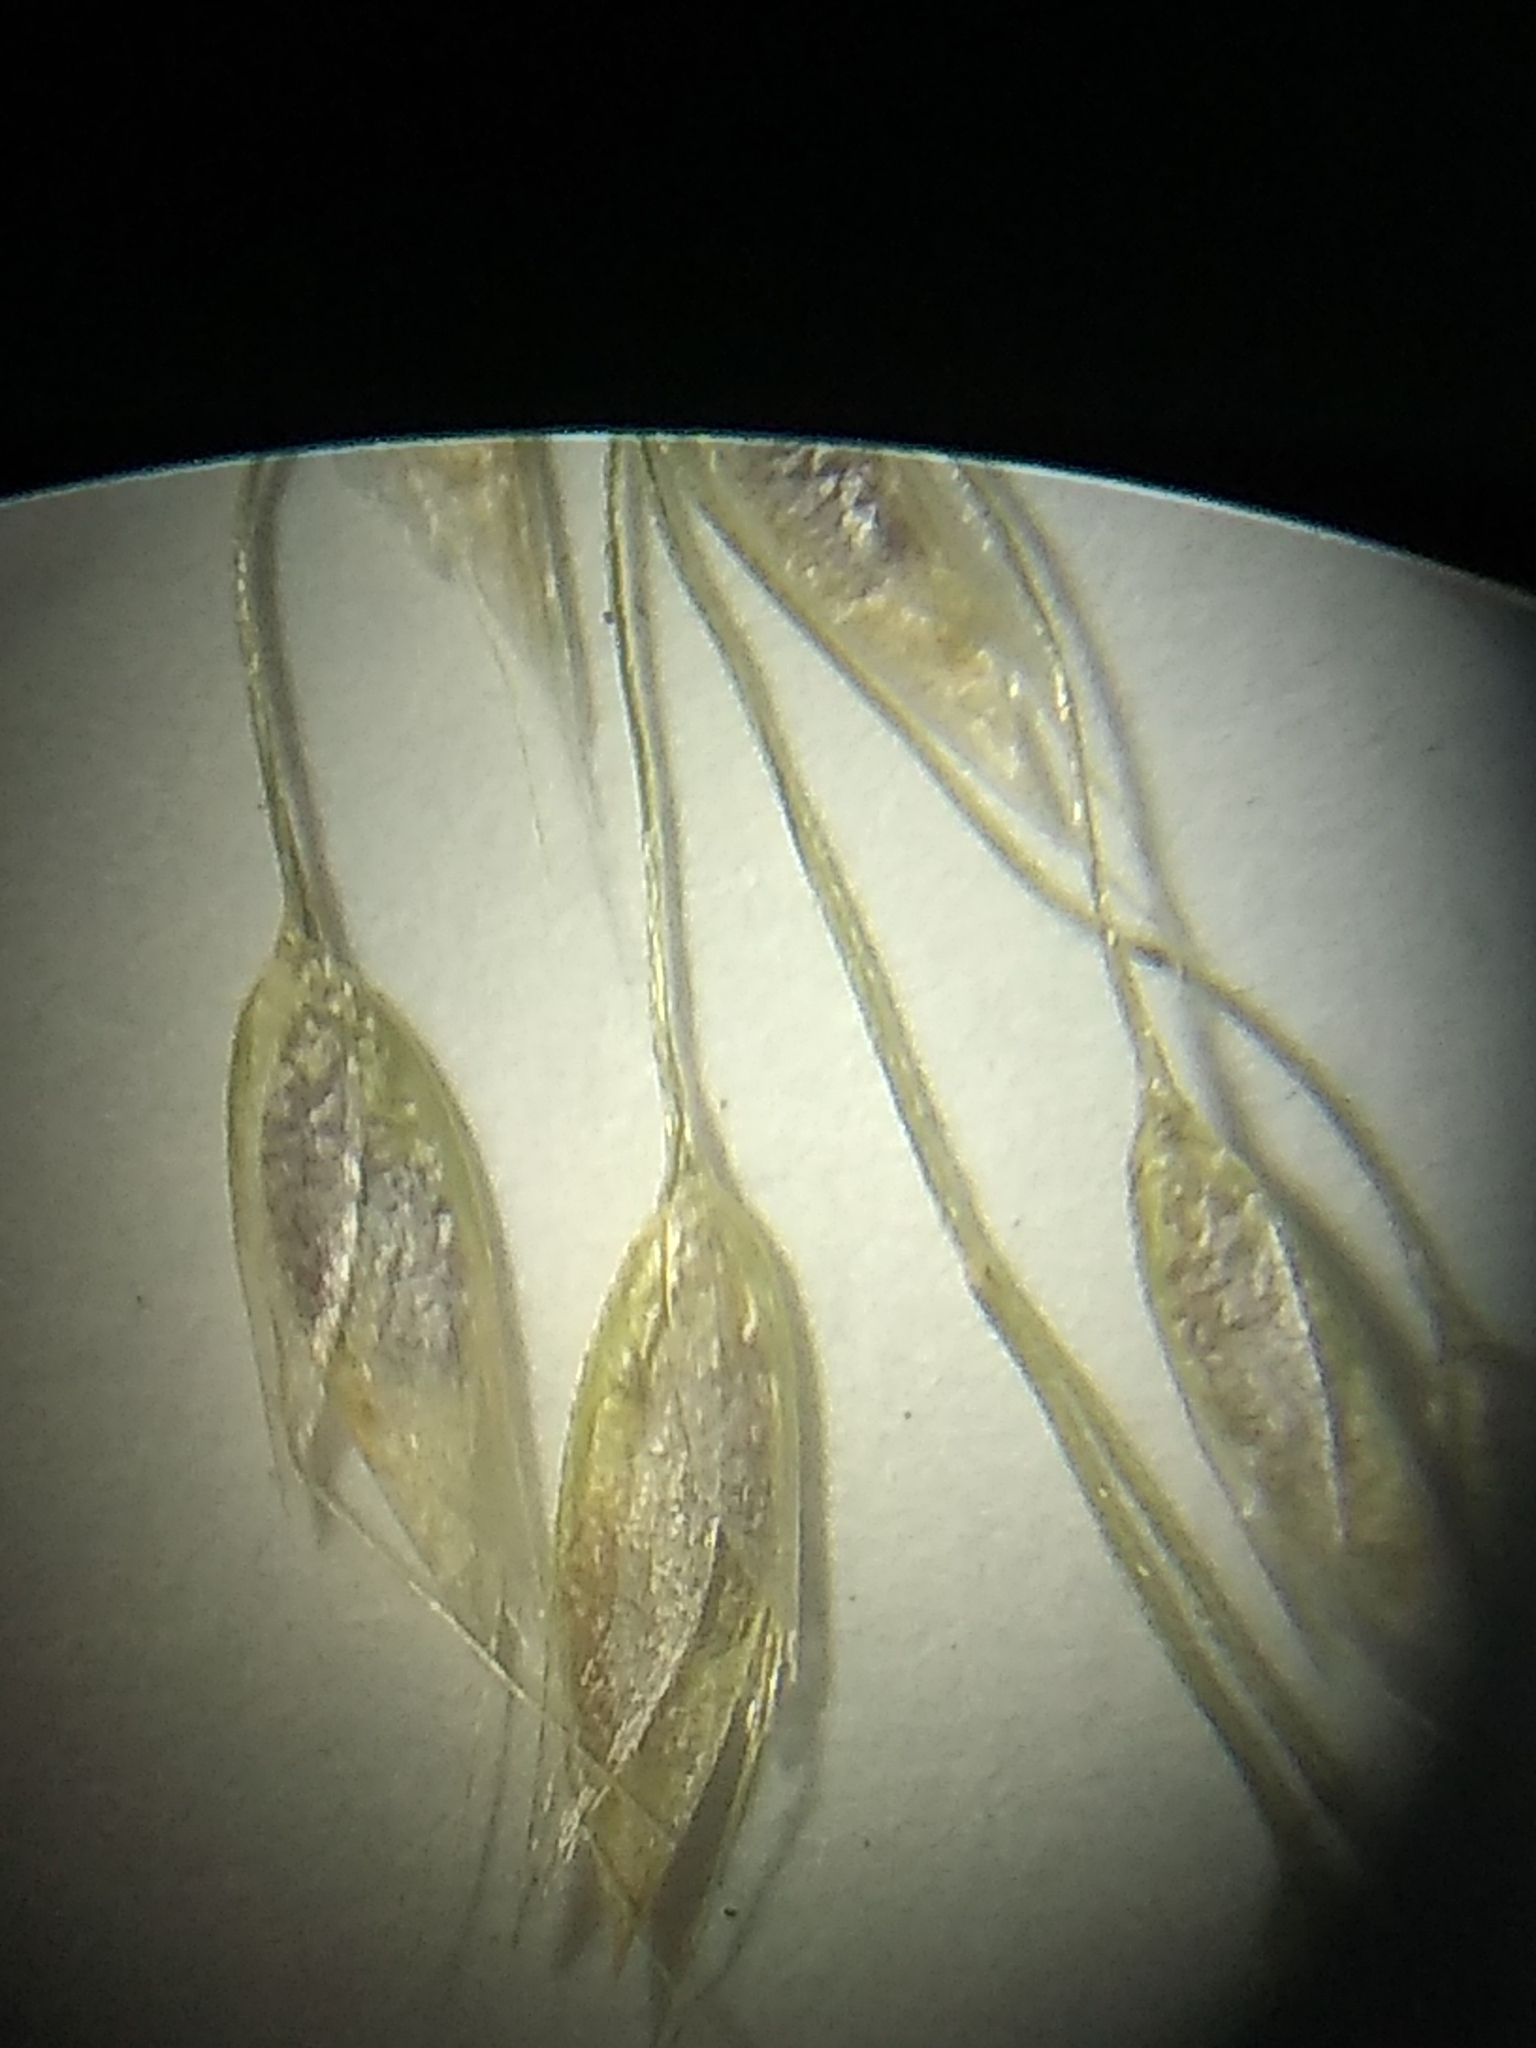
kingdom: Plantae
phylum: Tracheophyta
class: Liliopsida
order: Poales
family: Poaceae
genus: Avenella
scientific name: Avenella flexuosa
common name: Wavy hairgrass
